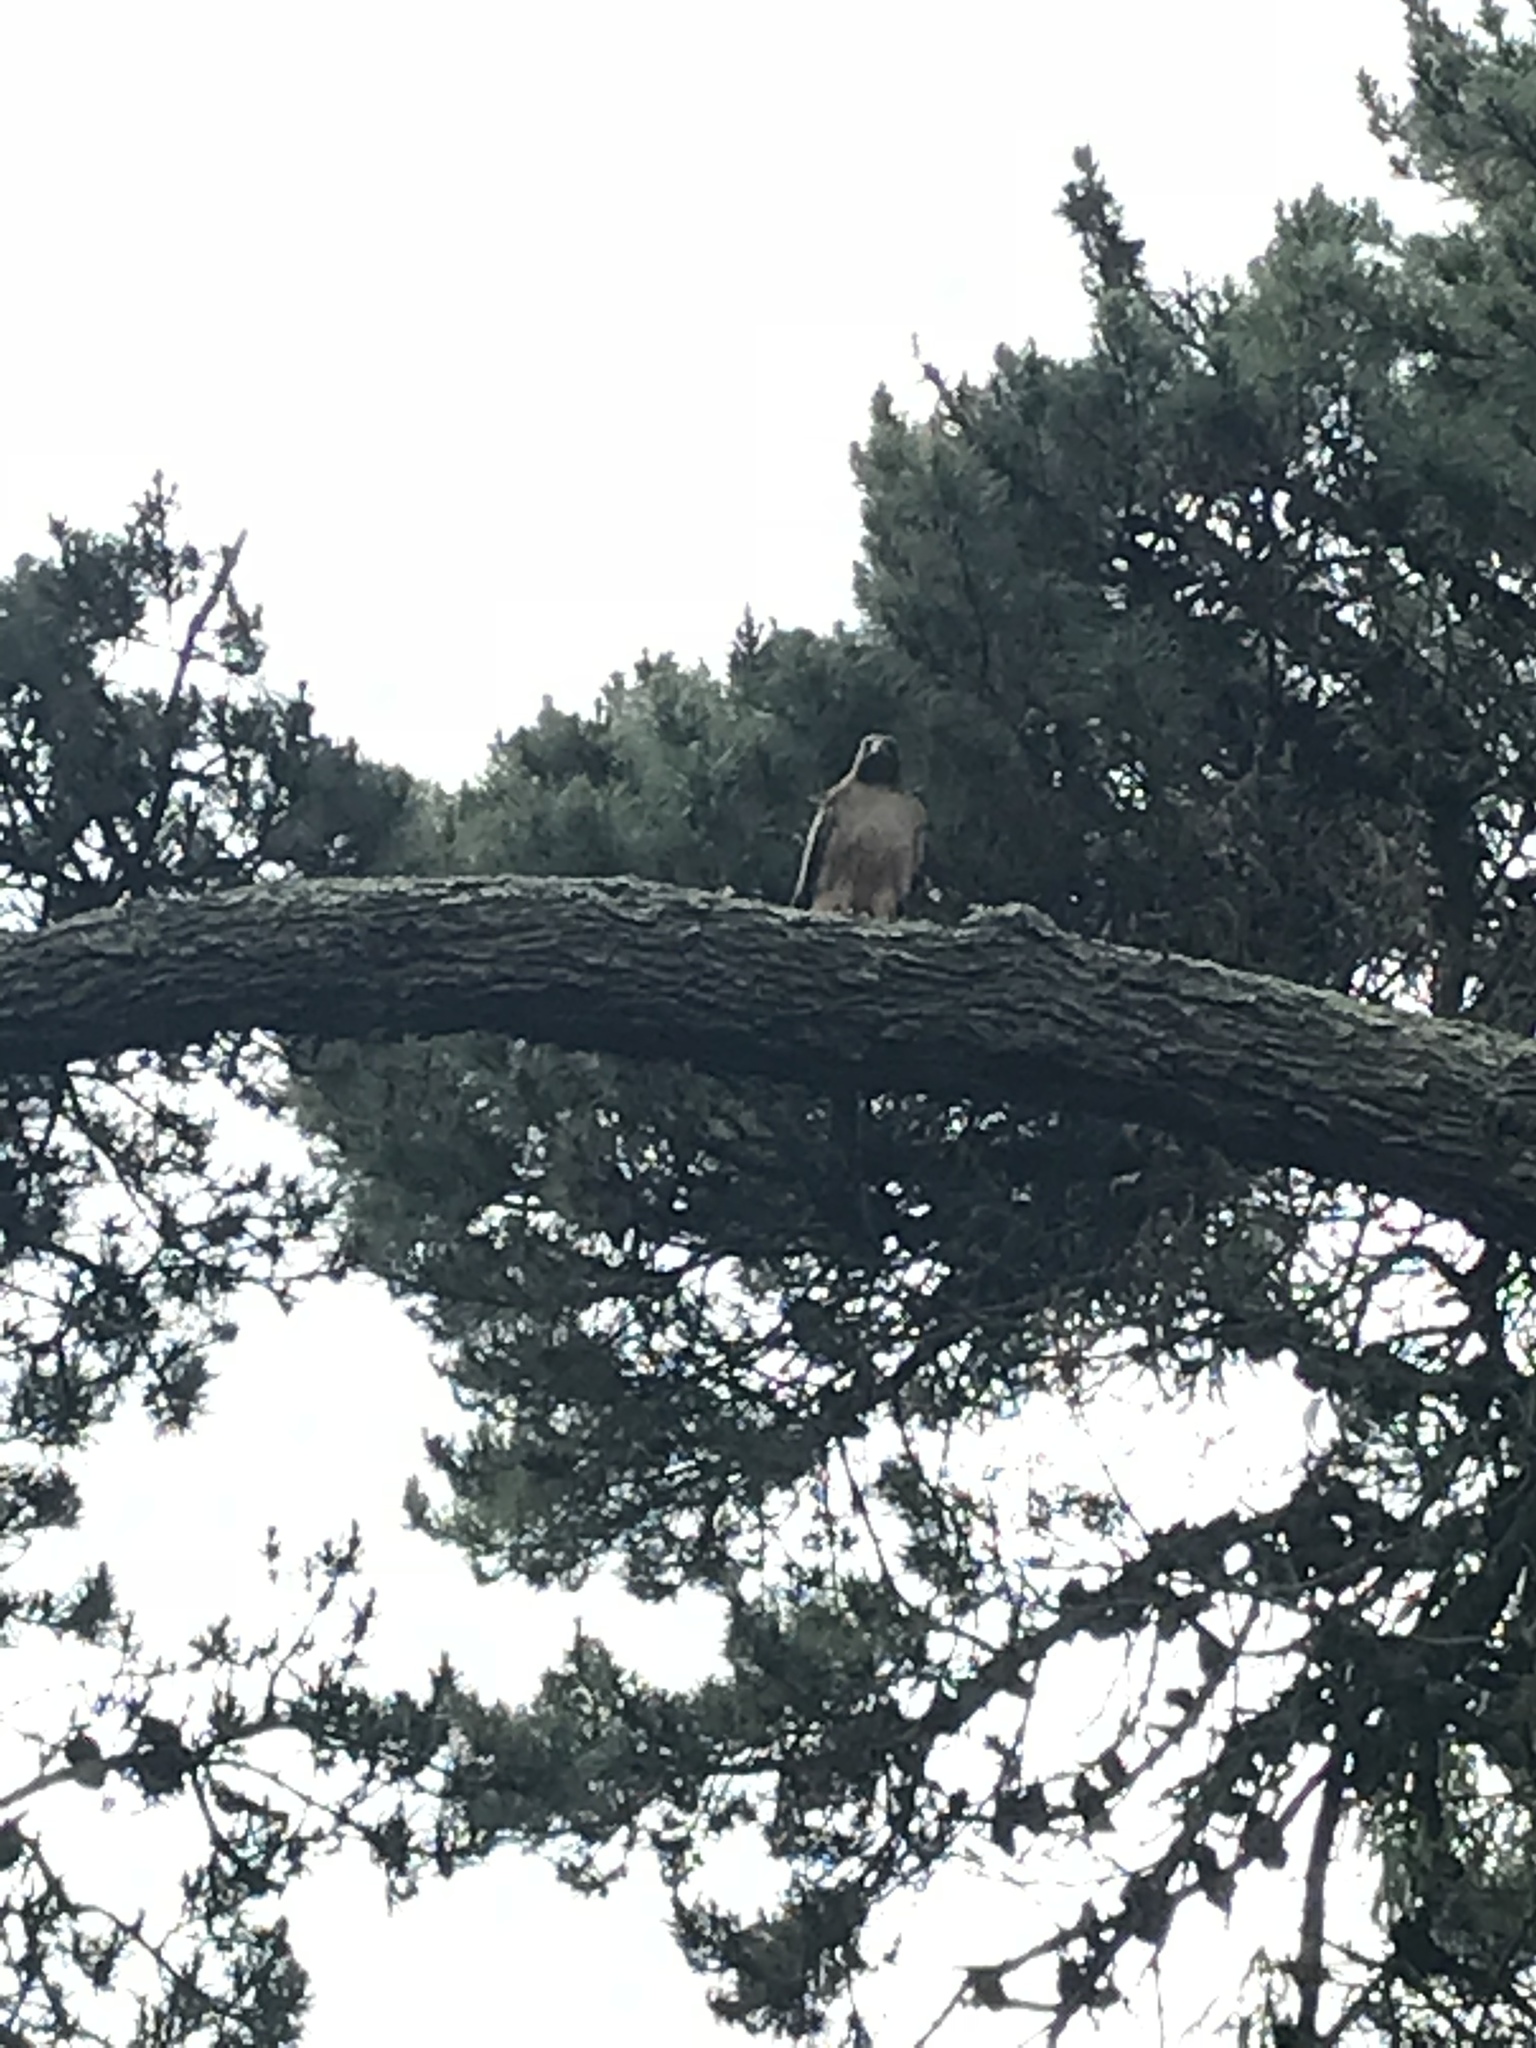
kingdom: Animalia
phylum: Chordata
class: Aves
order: Accipitriformes
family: Accipitridae
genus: Buteo
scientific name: Buteo jamaicensis
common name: Red-tailed hawk
